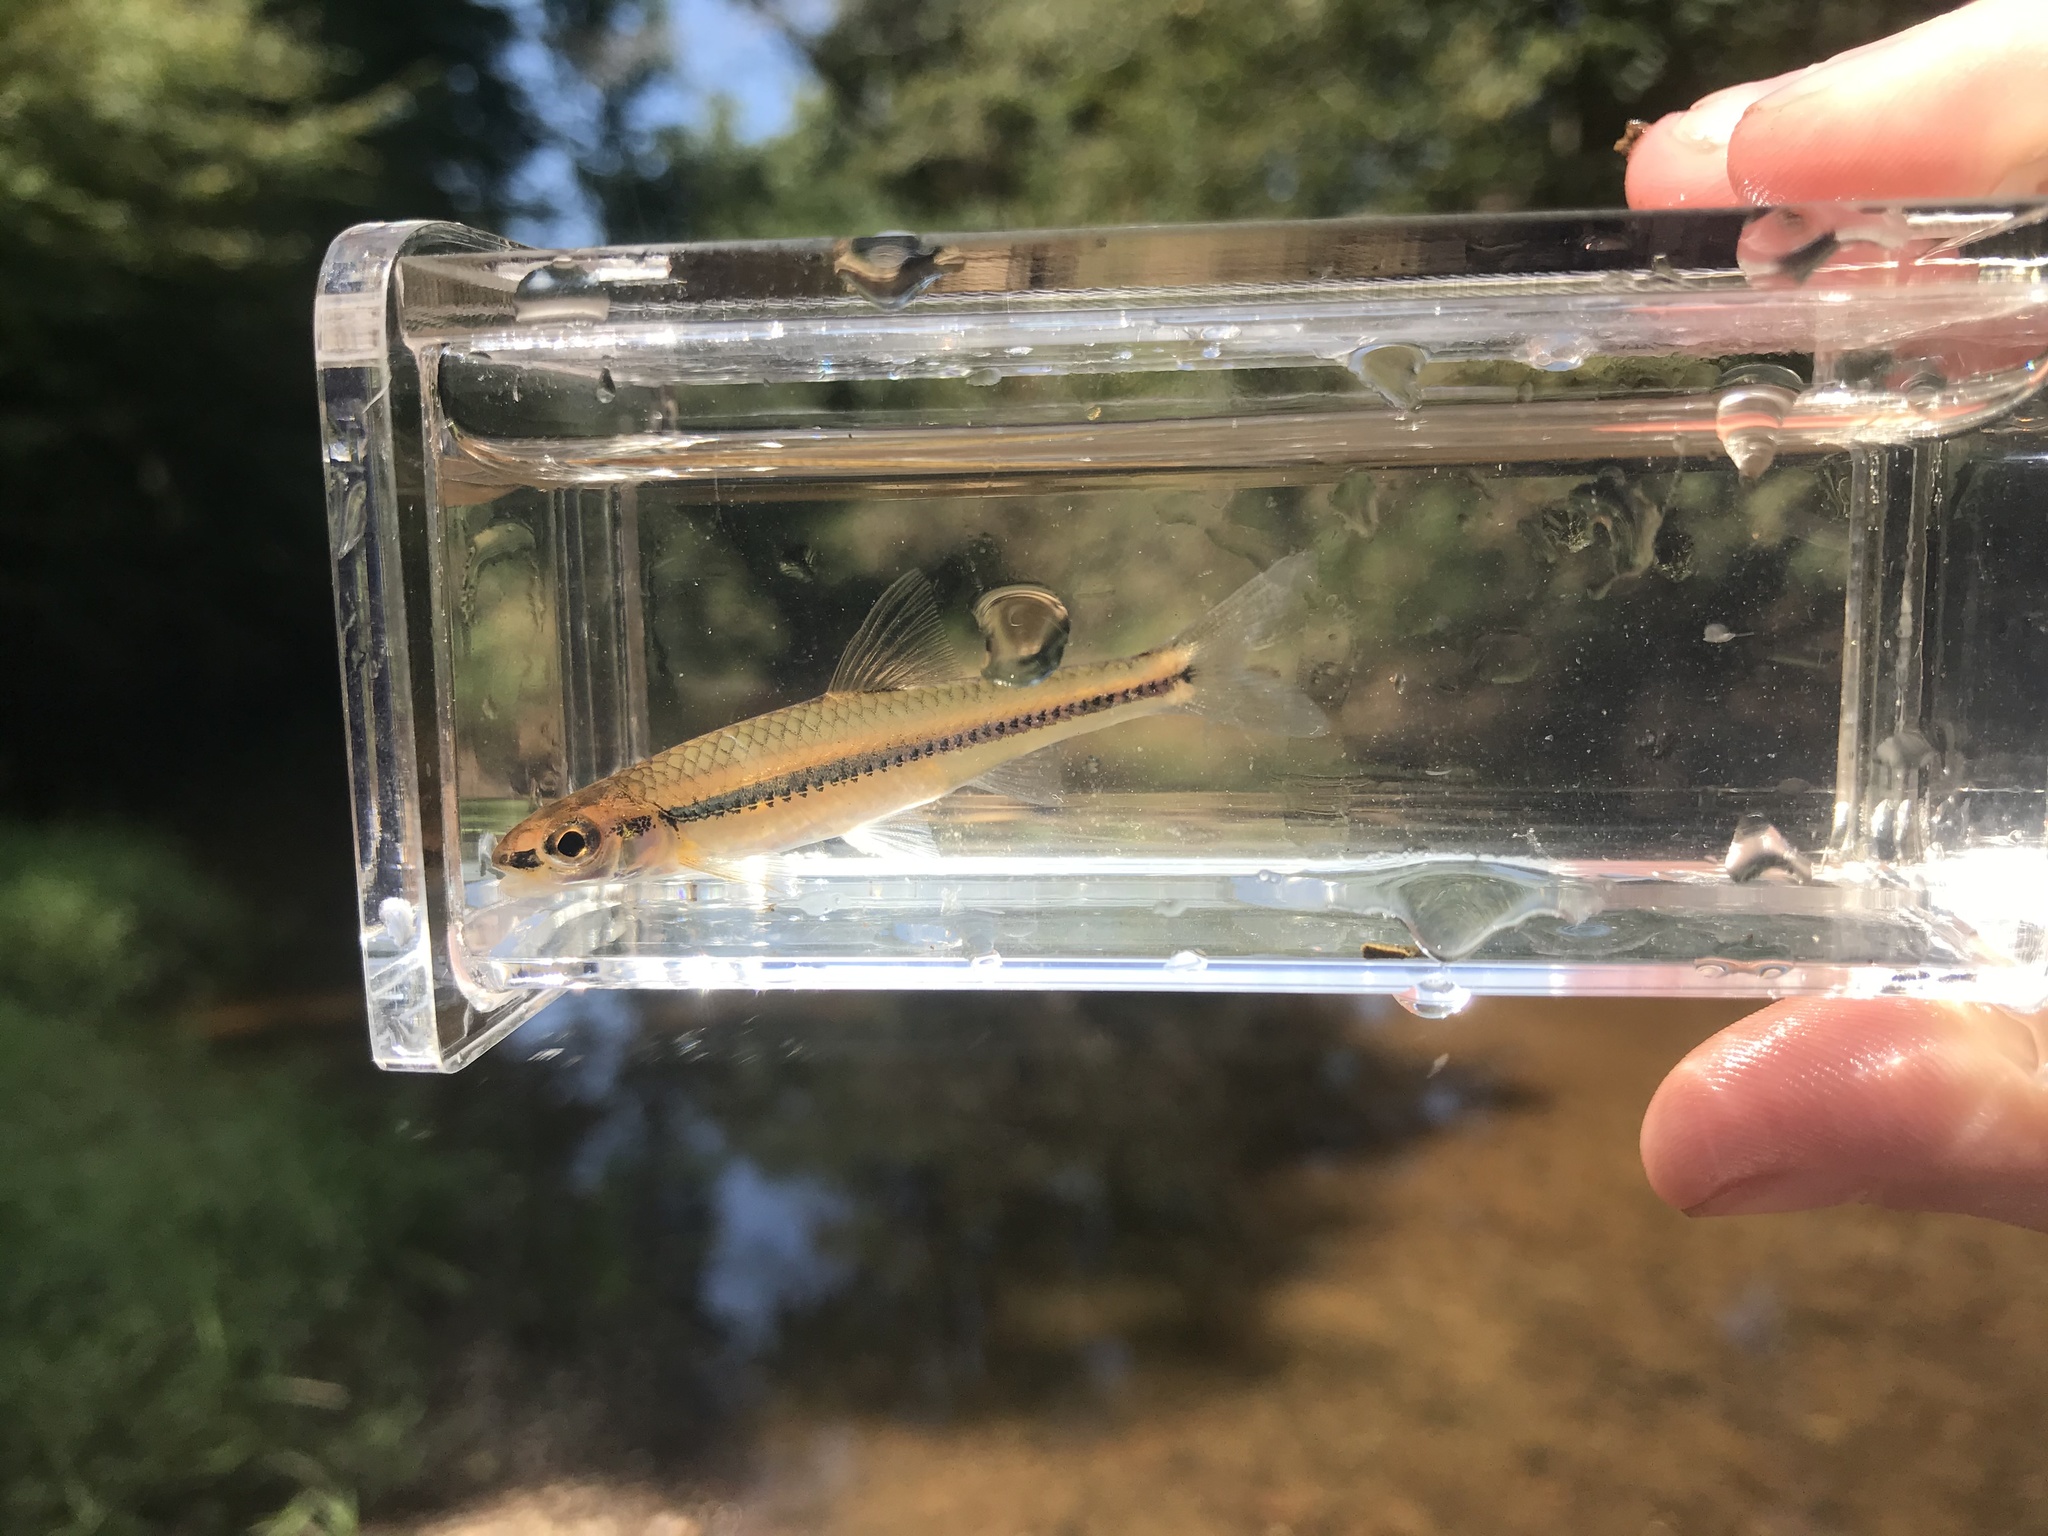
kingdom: Animalia
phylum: Chordata
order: Cypriniformes
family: Cyprinidae
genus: Notropis
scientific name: Notropis
